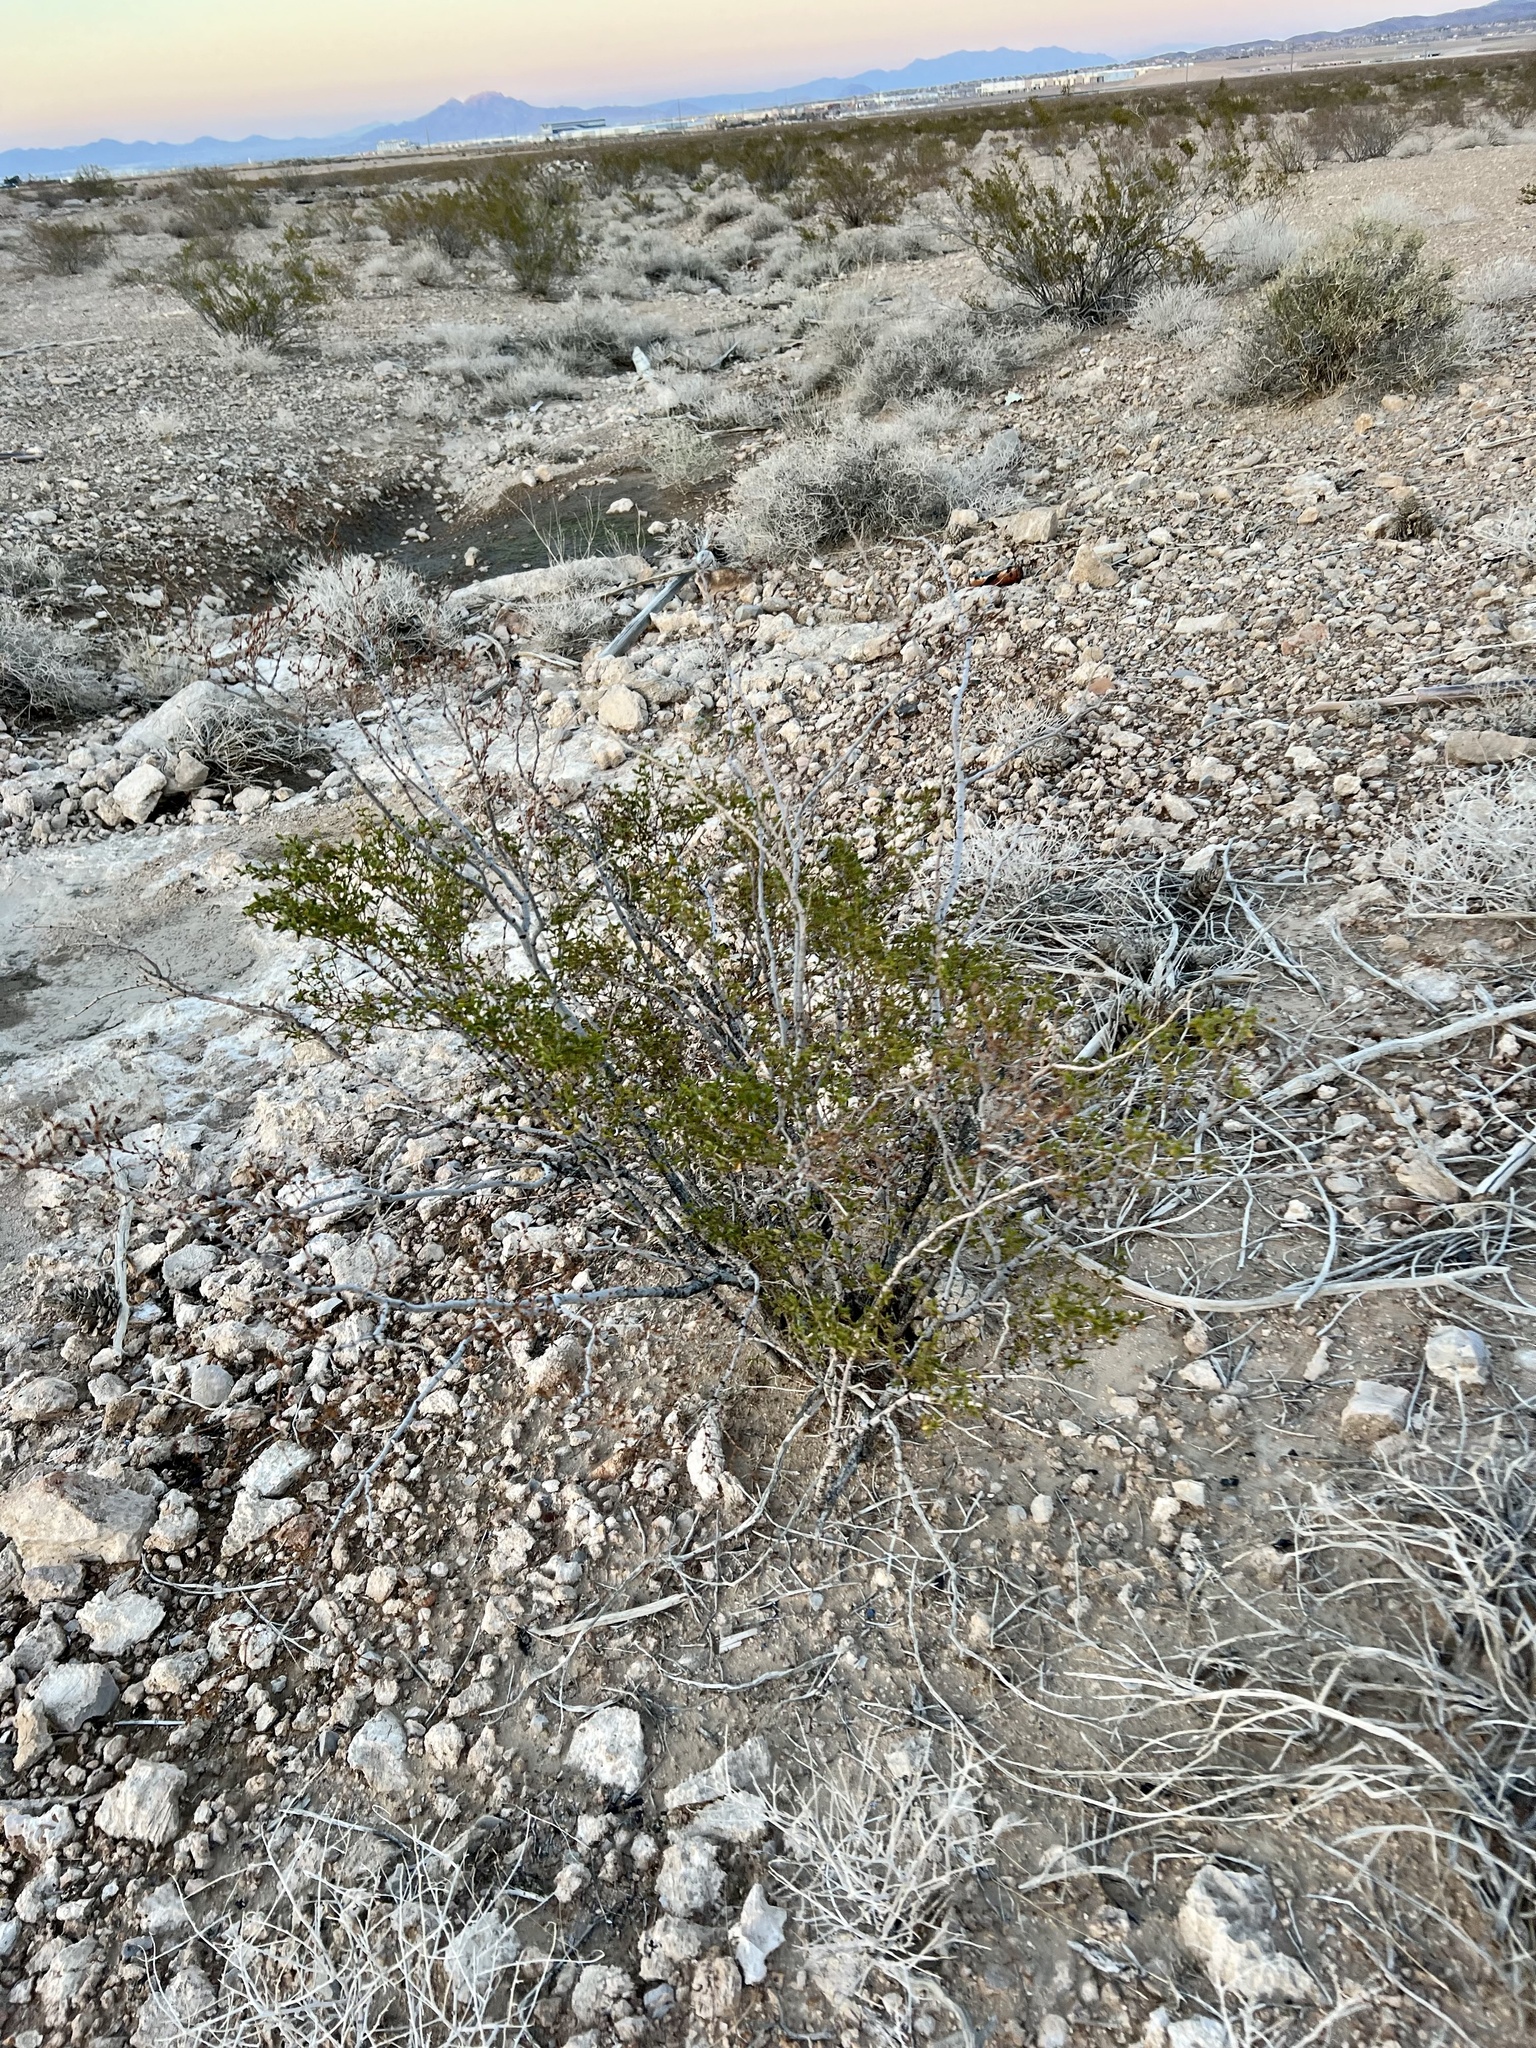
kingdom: Plantae
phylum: Tracheophyta
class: Magnoliopsida
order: Zygophyllales
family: Zygophyllaceae
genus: Larrea
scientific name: Larrea tridentata
